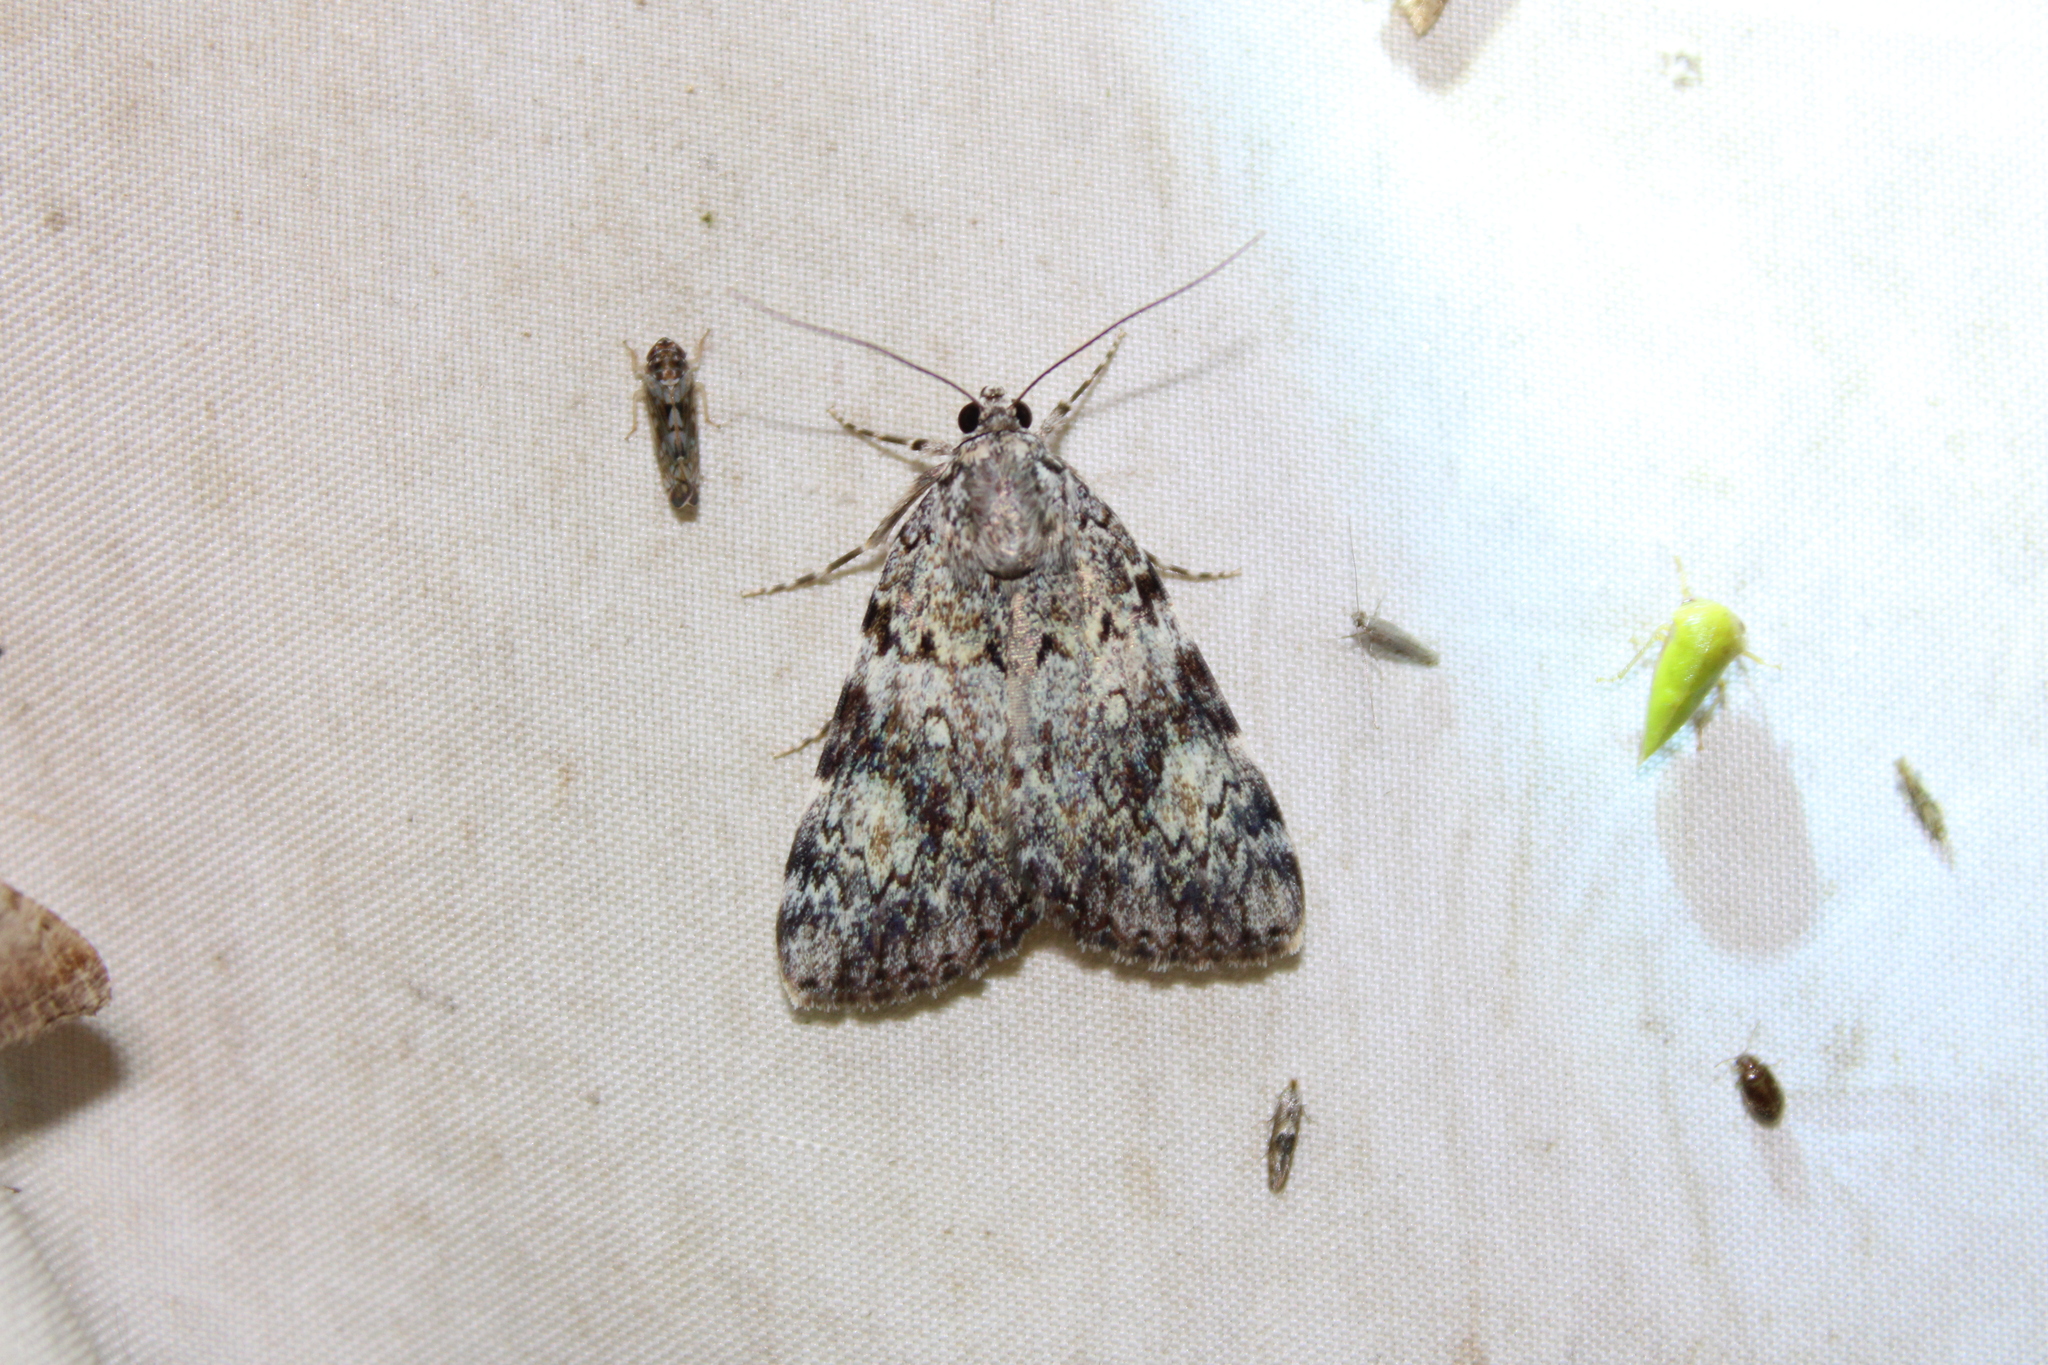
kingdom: Animalia
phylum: Arthropoda
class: Insecta
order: Lepidoptera
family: Erebidae
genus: Catocala
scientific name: Catocala lineella
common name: Little lined underwing
